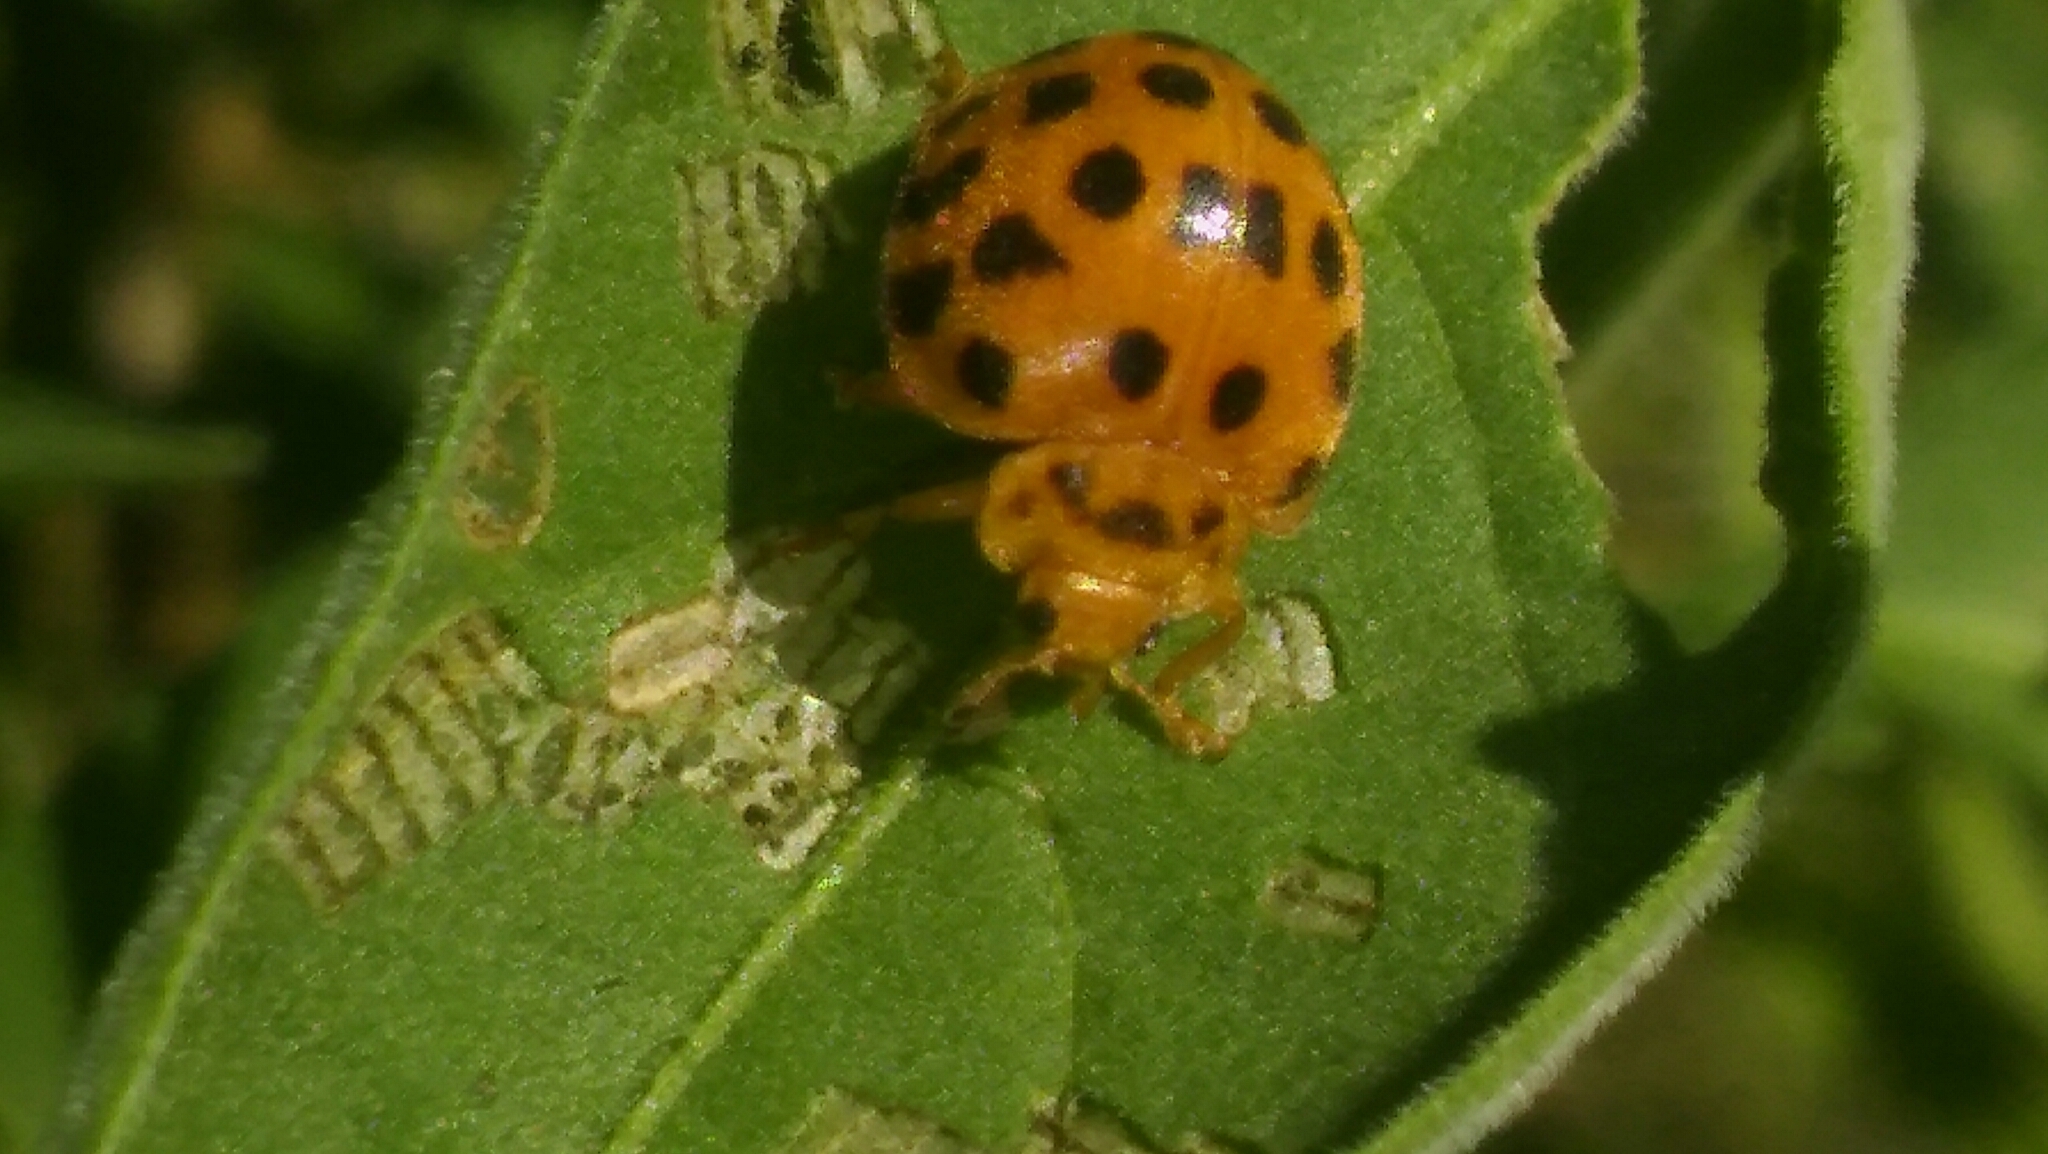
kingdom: Animalia
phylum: Arthropoda
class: Insecta
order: Coleoptera
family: Coccinellidae
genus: Henosepilachna
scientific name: Henosepilachna vigintioctopunctata
